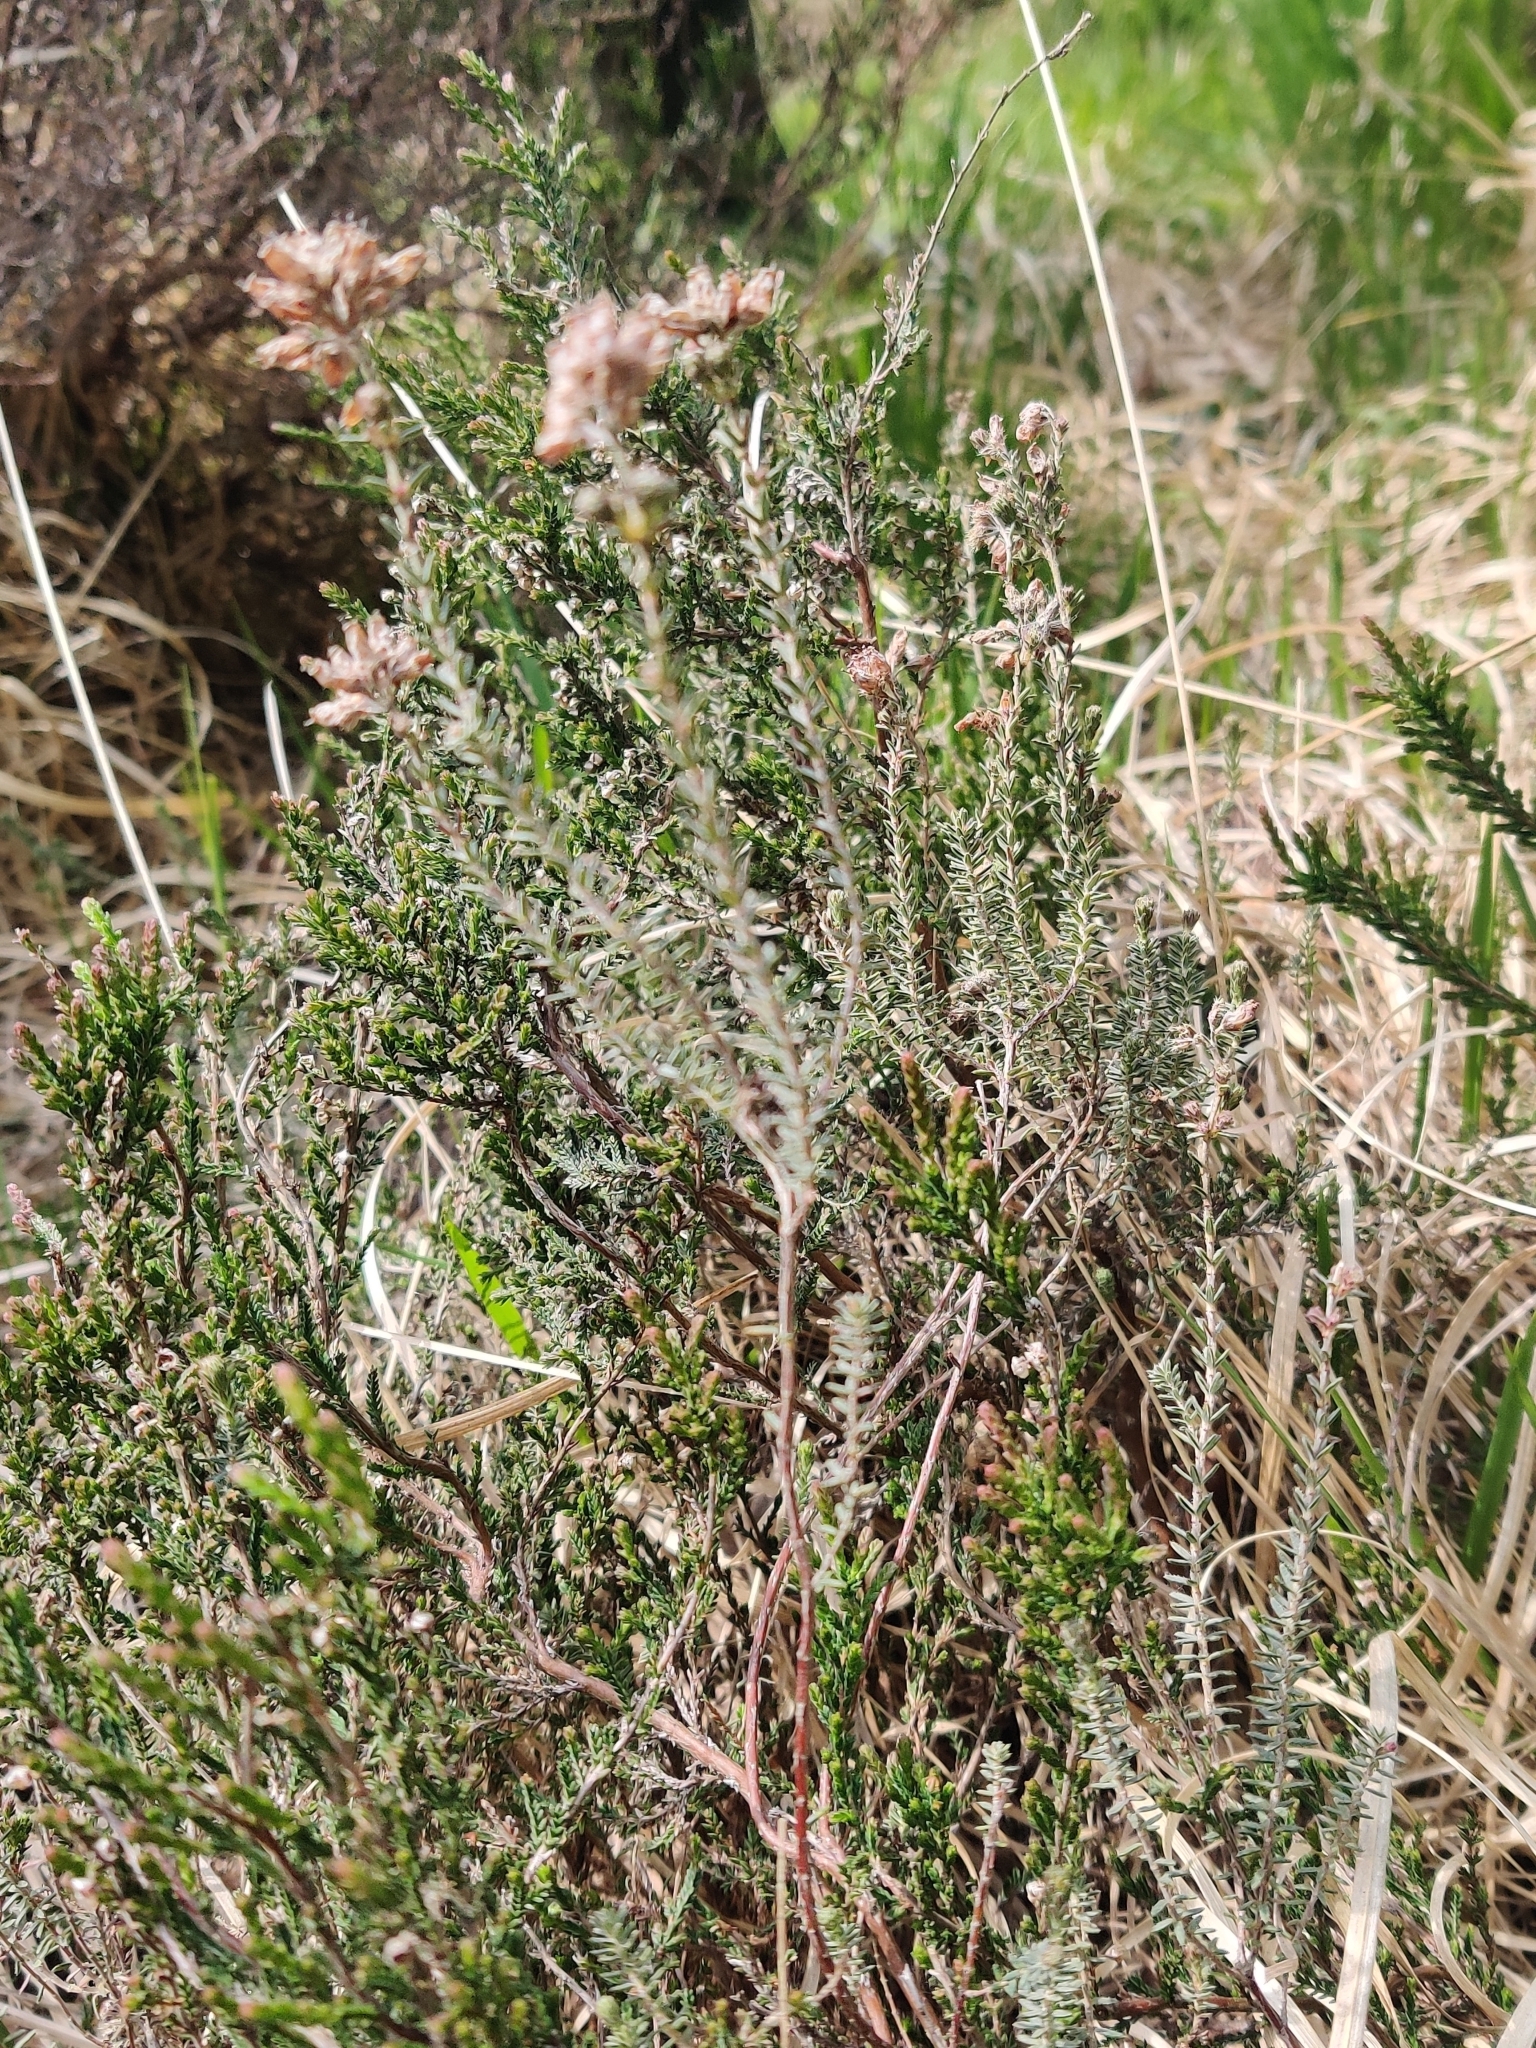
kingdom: Plantae
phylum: Tracheophyta
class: Magnoliopsida
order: Ericales
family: Ericaceae
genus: Erica
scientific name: Erica tetralix
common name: Cross-leaved heath
